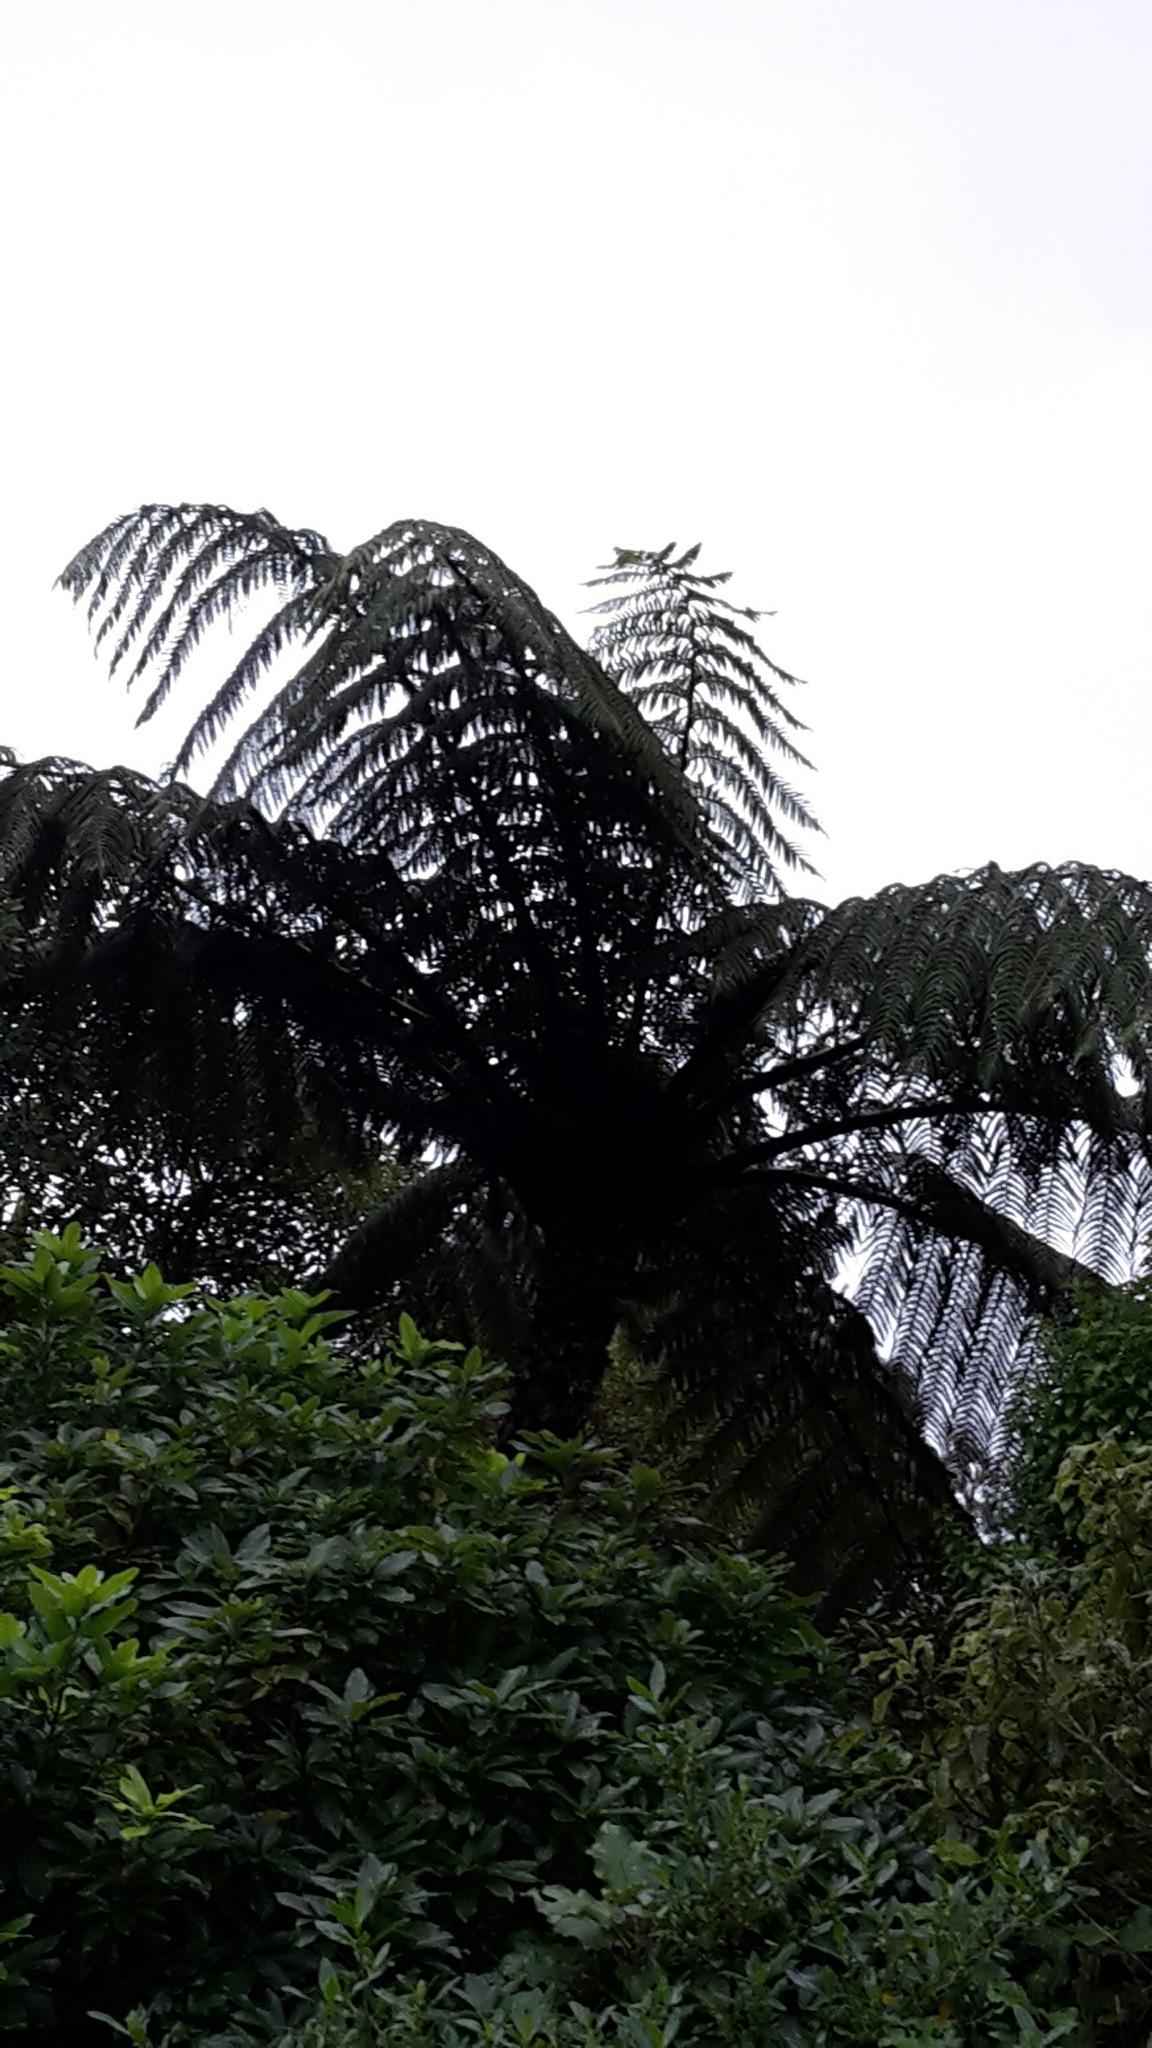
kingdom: Plantae
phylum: Tracheophyta
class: Polypodiopsida
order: Cyatheales
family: Cyatheaceae
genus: Sphaeropteris
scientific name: Sphaeropteris medullaris
